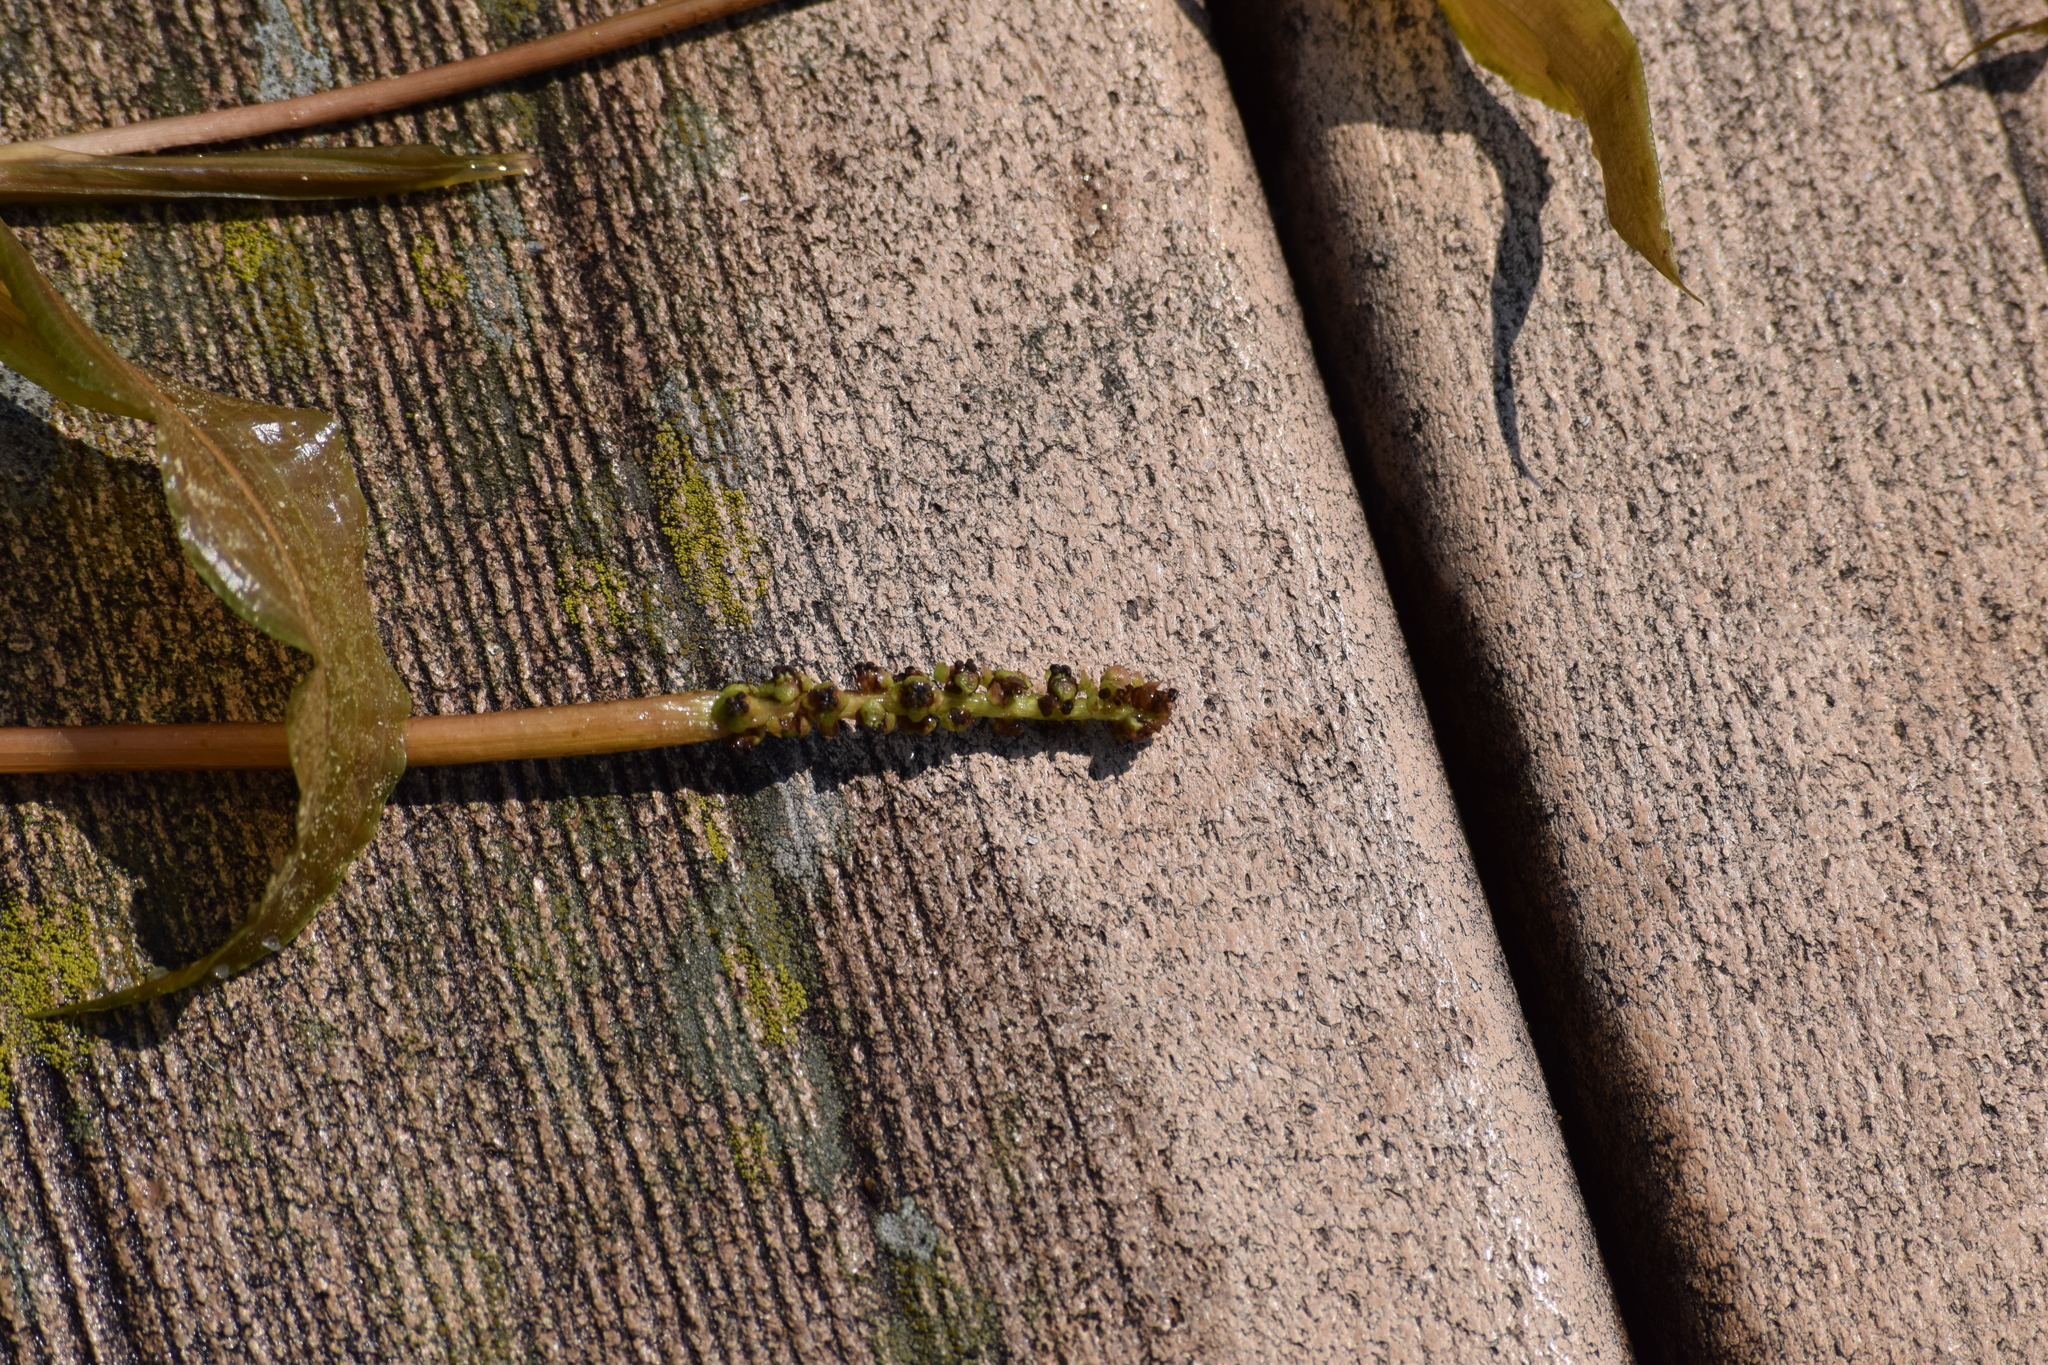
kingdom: Plantae
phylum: Tracheophyta
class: Liliopsida
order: Alismatales
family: Potamogetonaceae
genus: Potamogeton
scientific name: Potamogeton illinoensis
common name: Illinois pondweed
